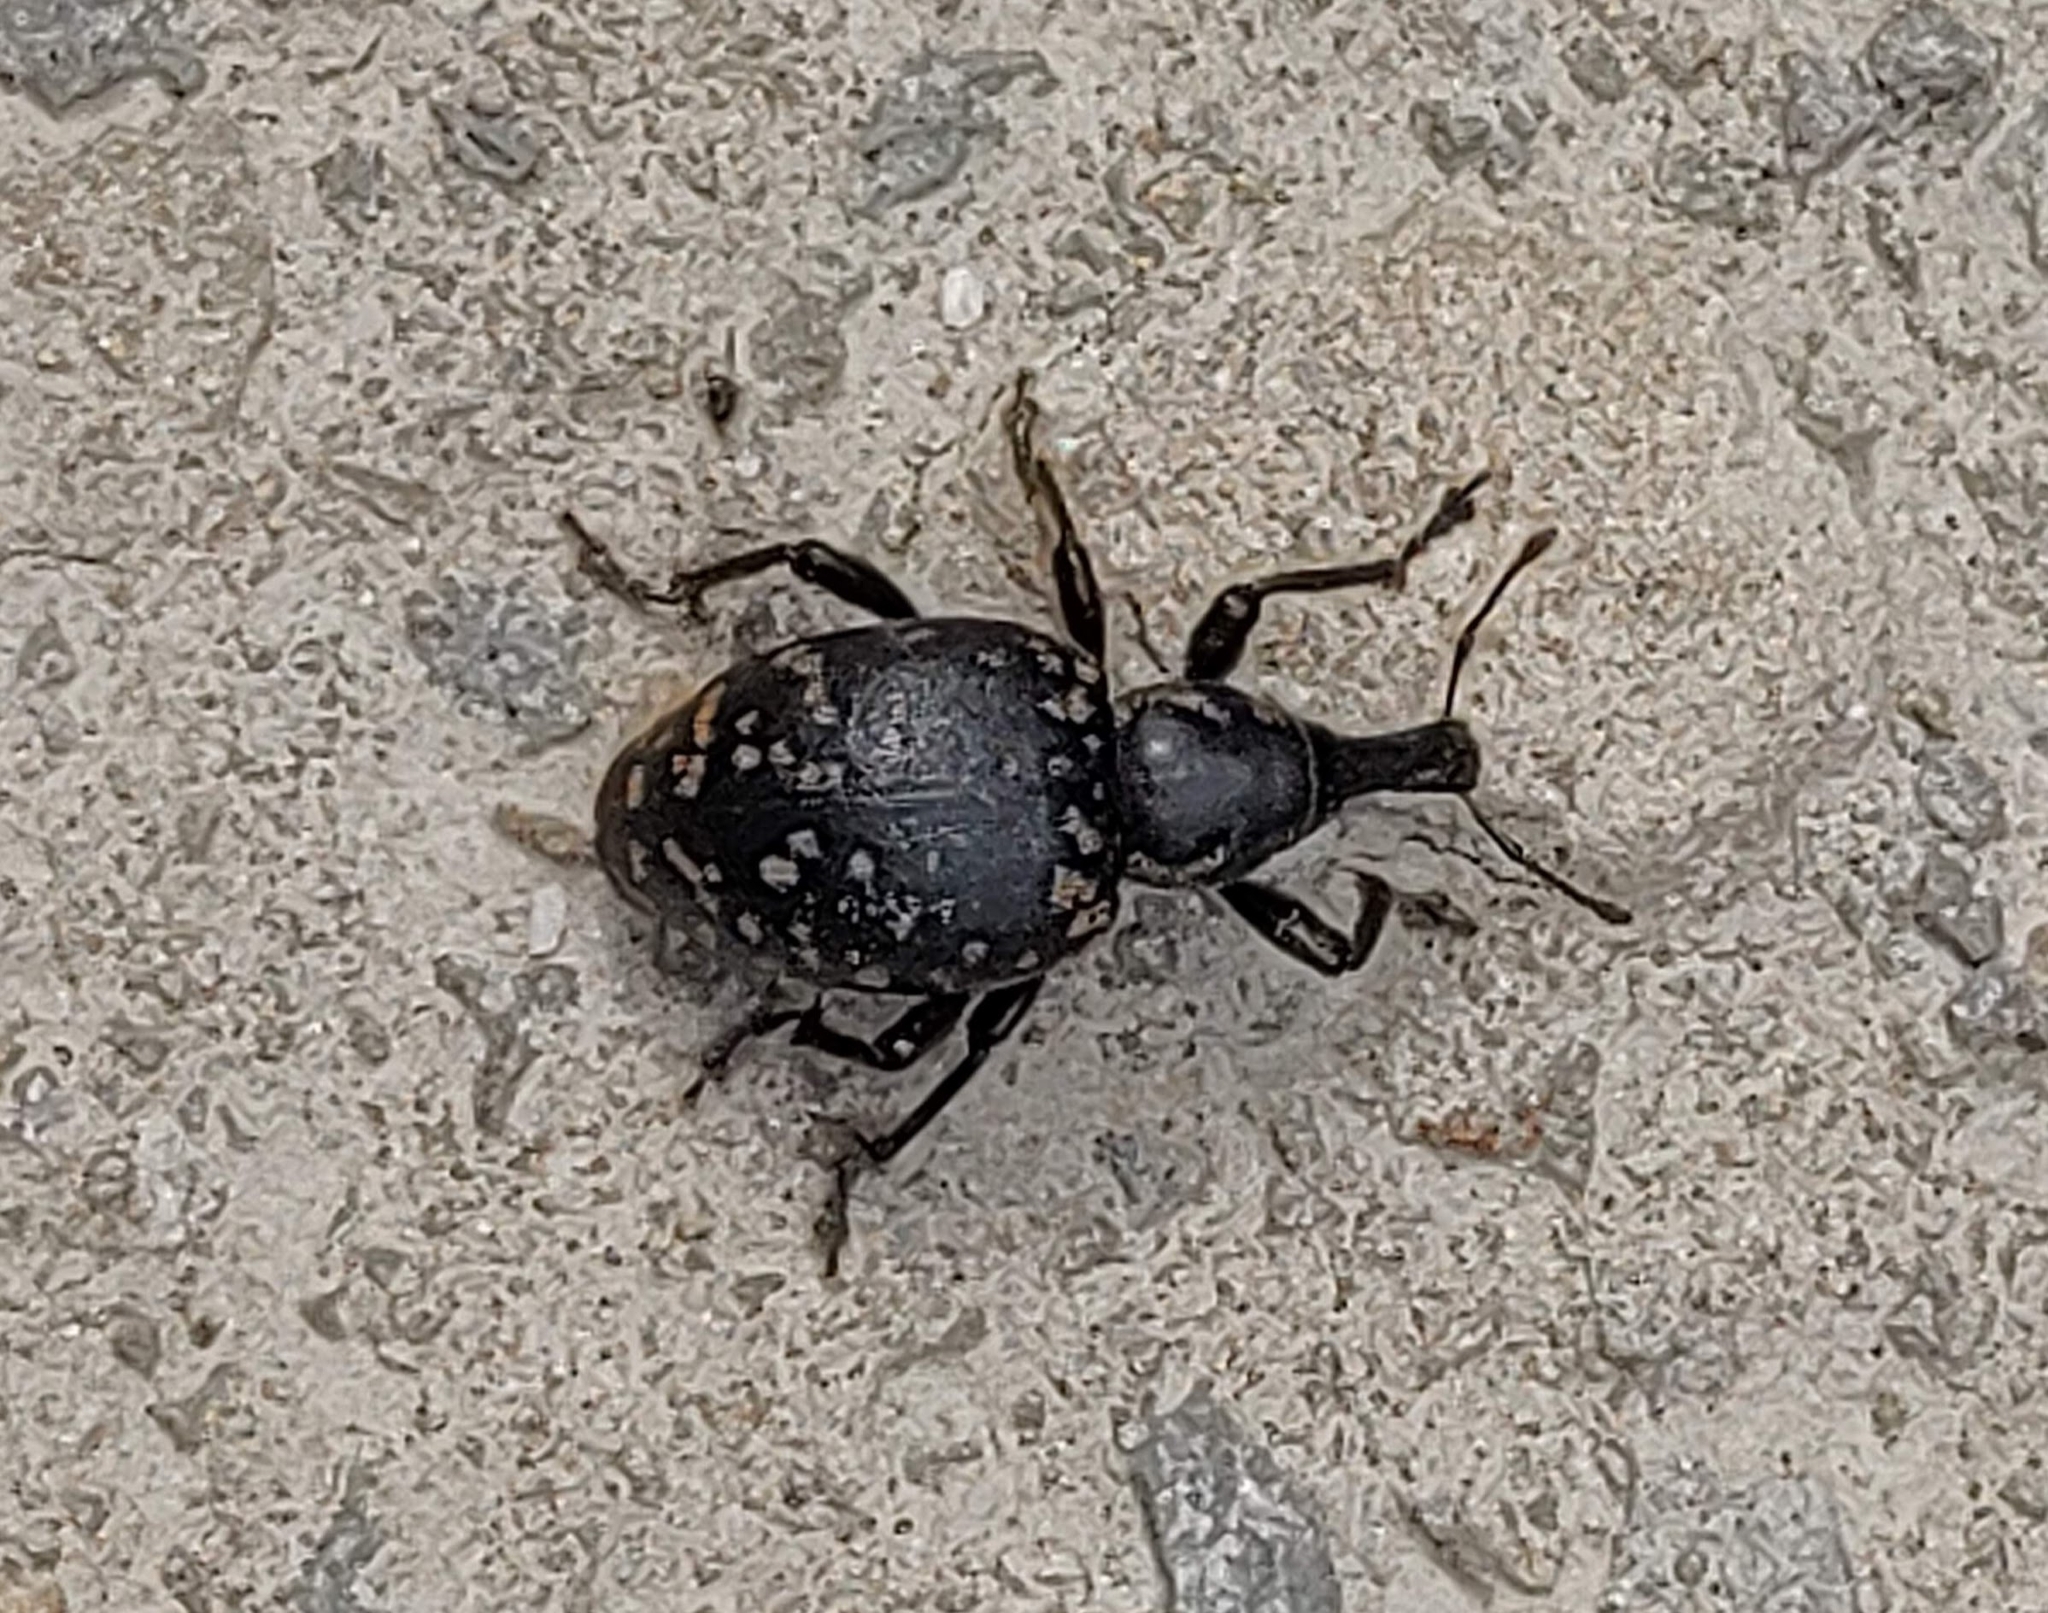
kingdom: Animalia
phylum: Arthropoda
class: Insecta
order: Coleoptera
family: Curculionidae
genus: Liparus
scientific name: Liparus glabrirostris
